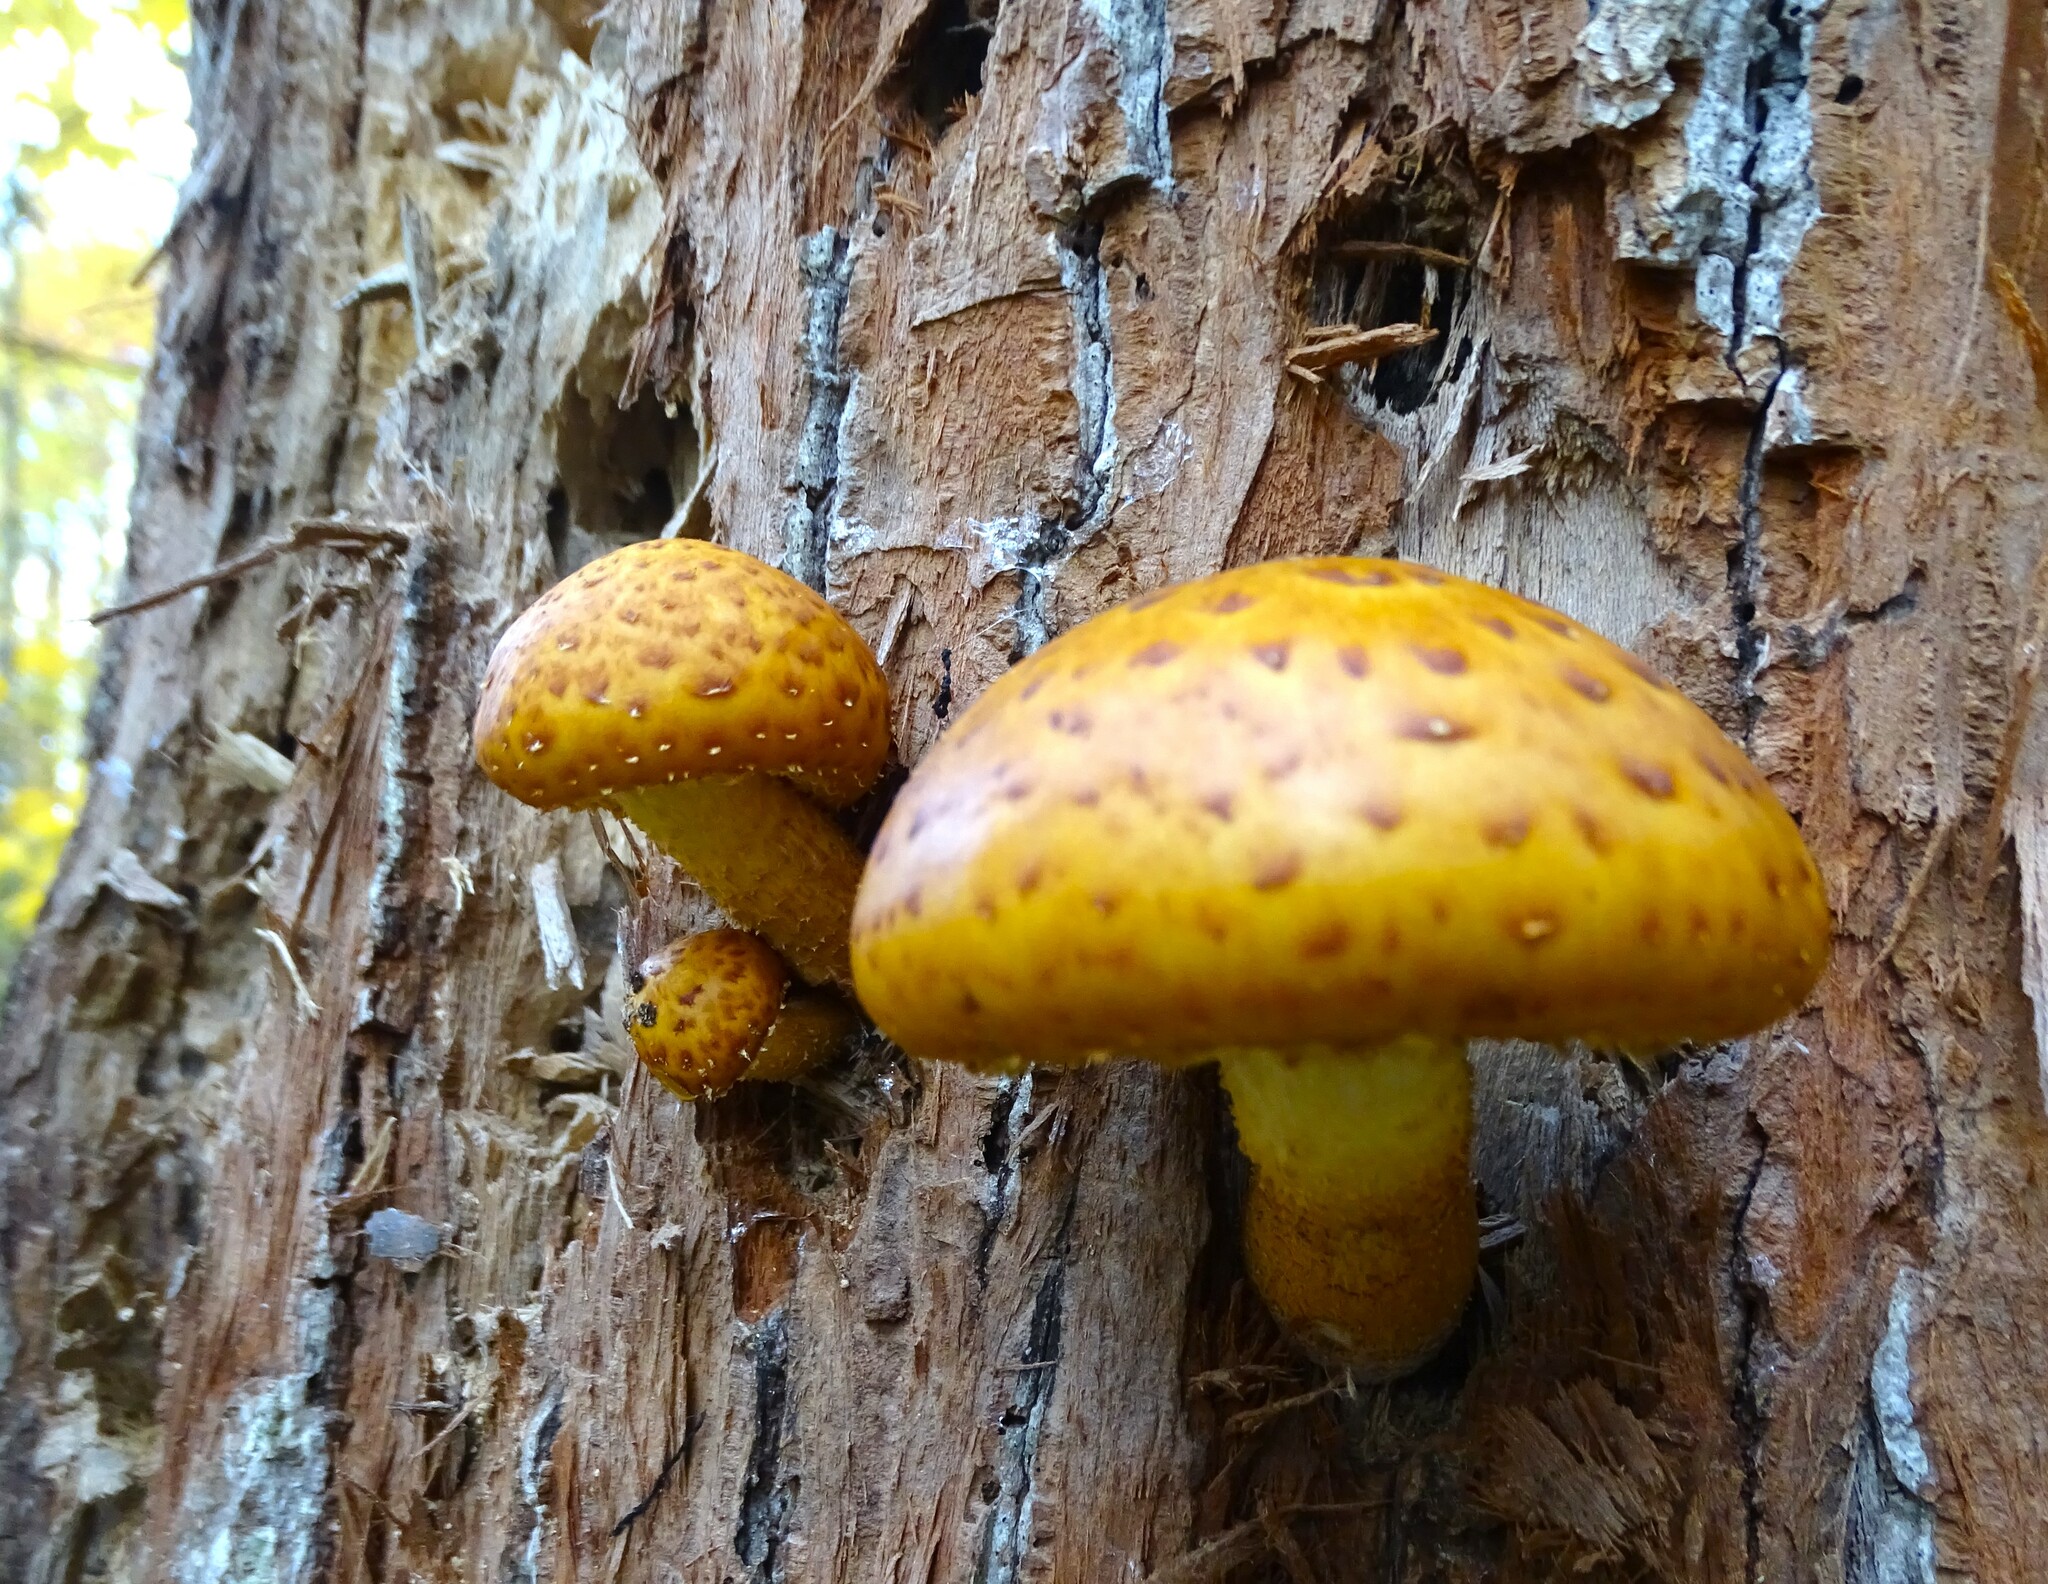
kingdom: Fungi
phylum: Basidiomycota
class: Agaricomycetes
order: Agaricales
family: Strophariaceae
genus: Pholiota
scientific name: Pholiota aurivella
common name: Golden scalycap
